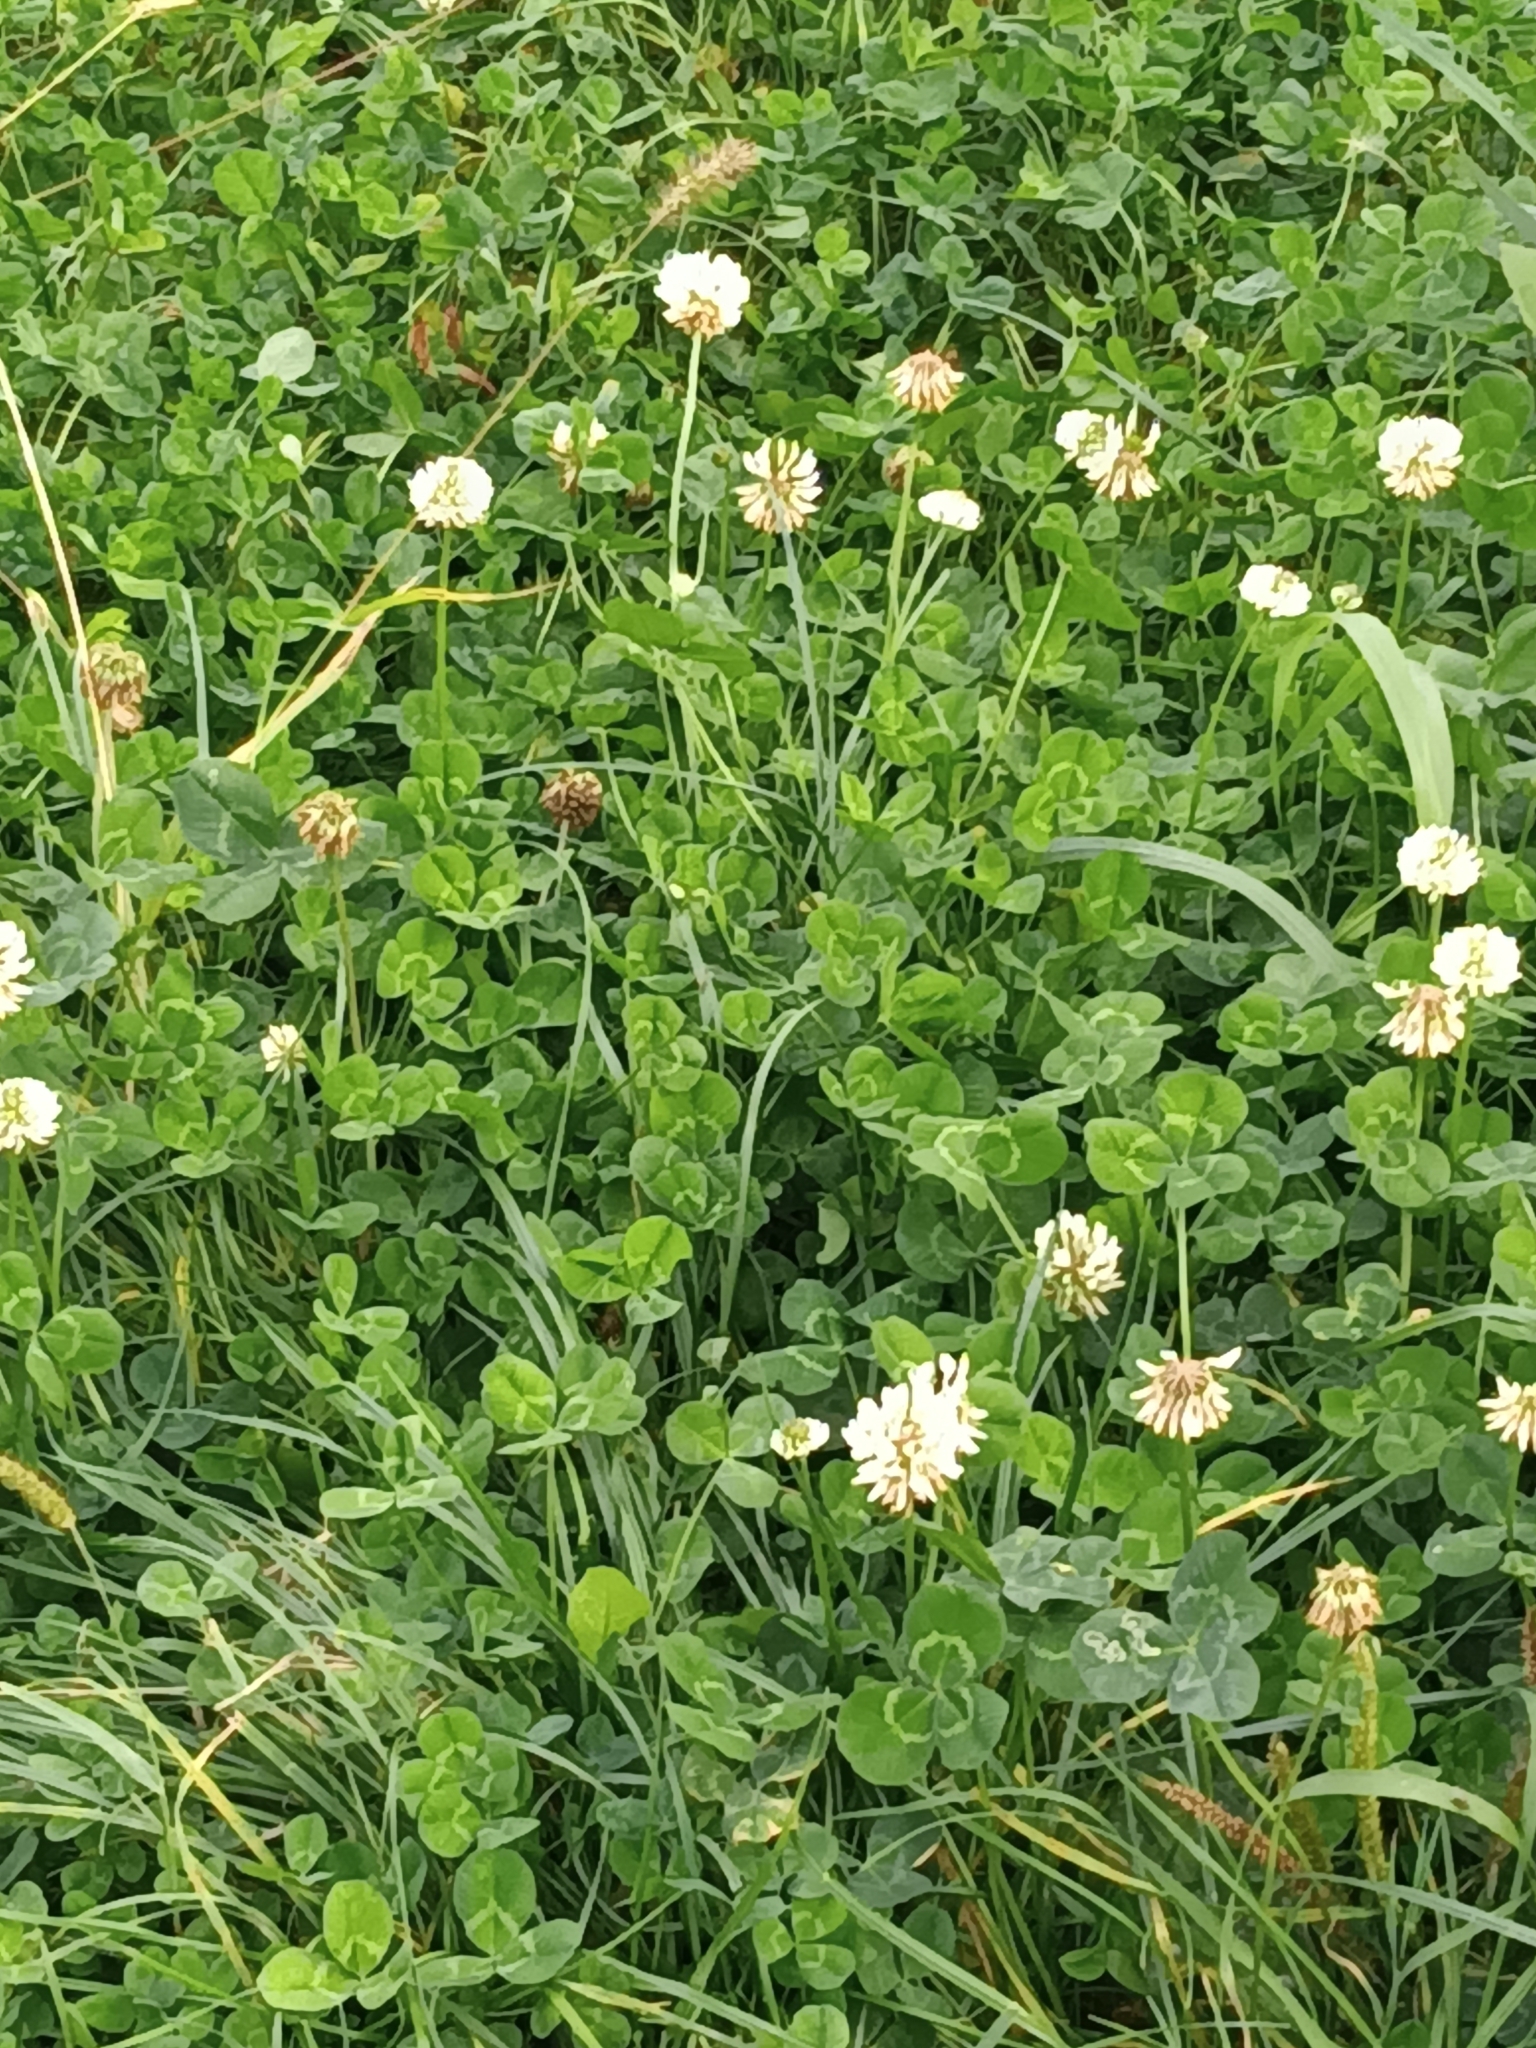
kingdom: Plantae
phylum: Tracheophyta
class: Magnoliopsida
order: Fabales
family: Fabaceae
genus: Trifolium
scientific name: Trifolium repens
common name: White clover
